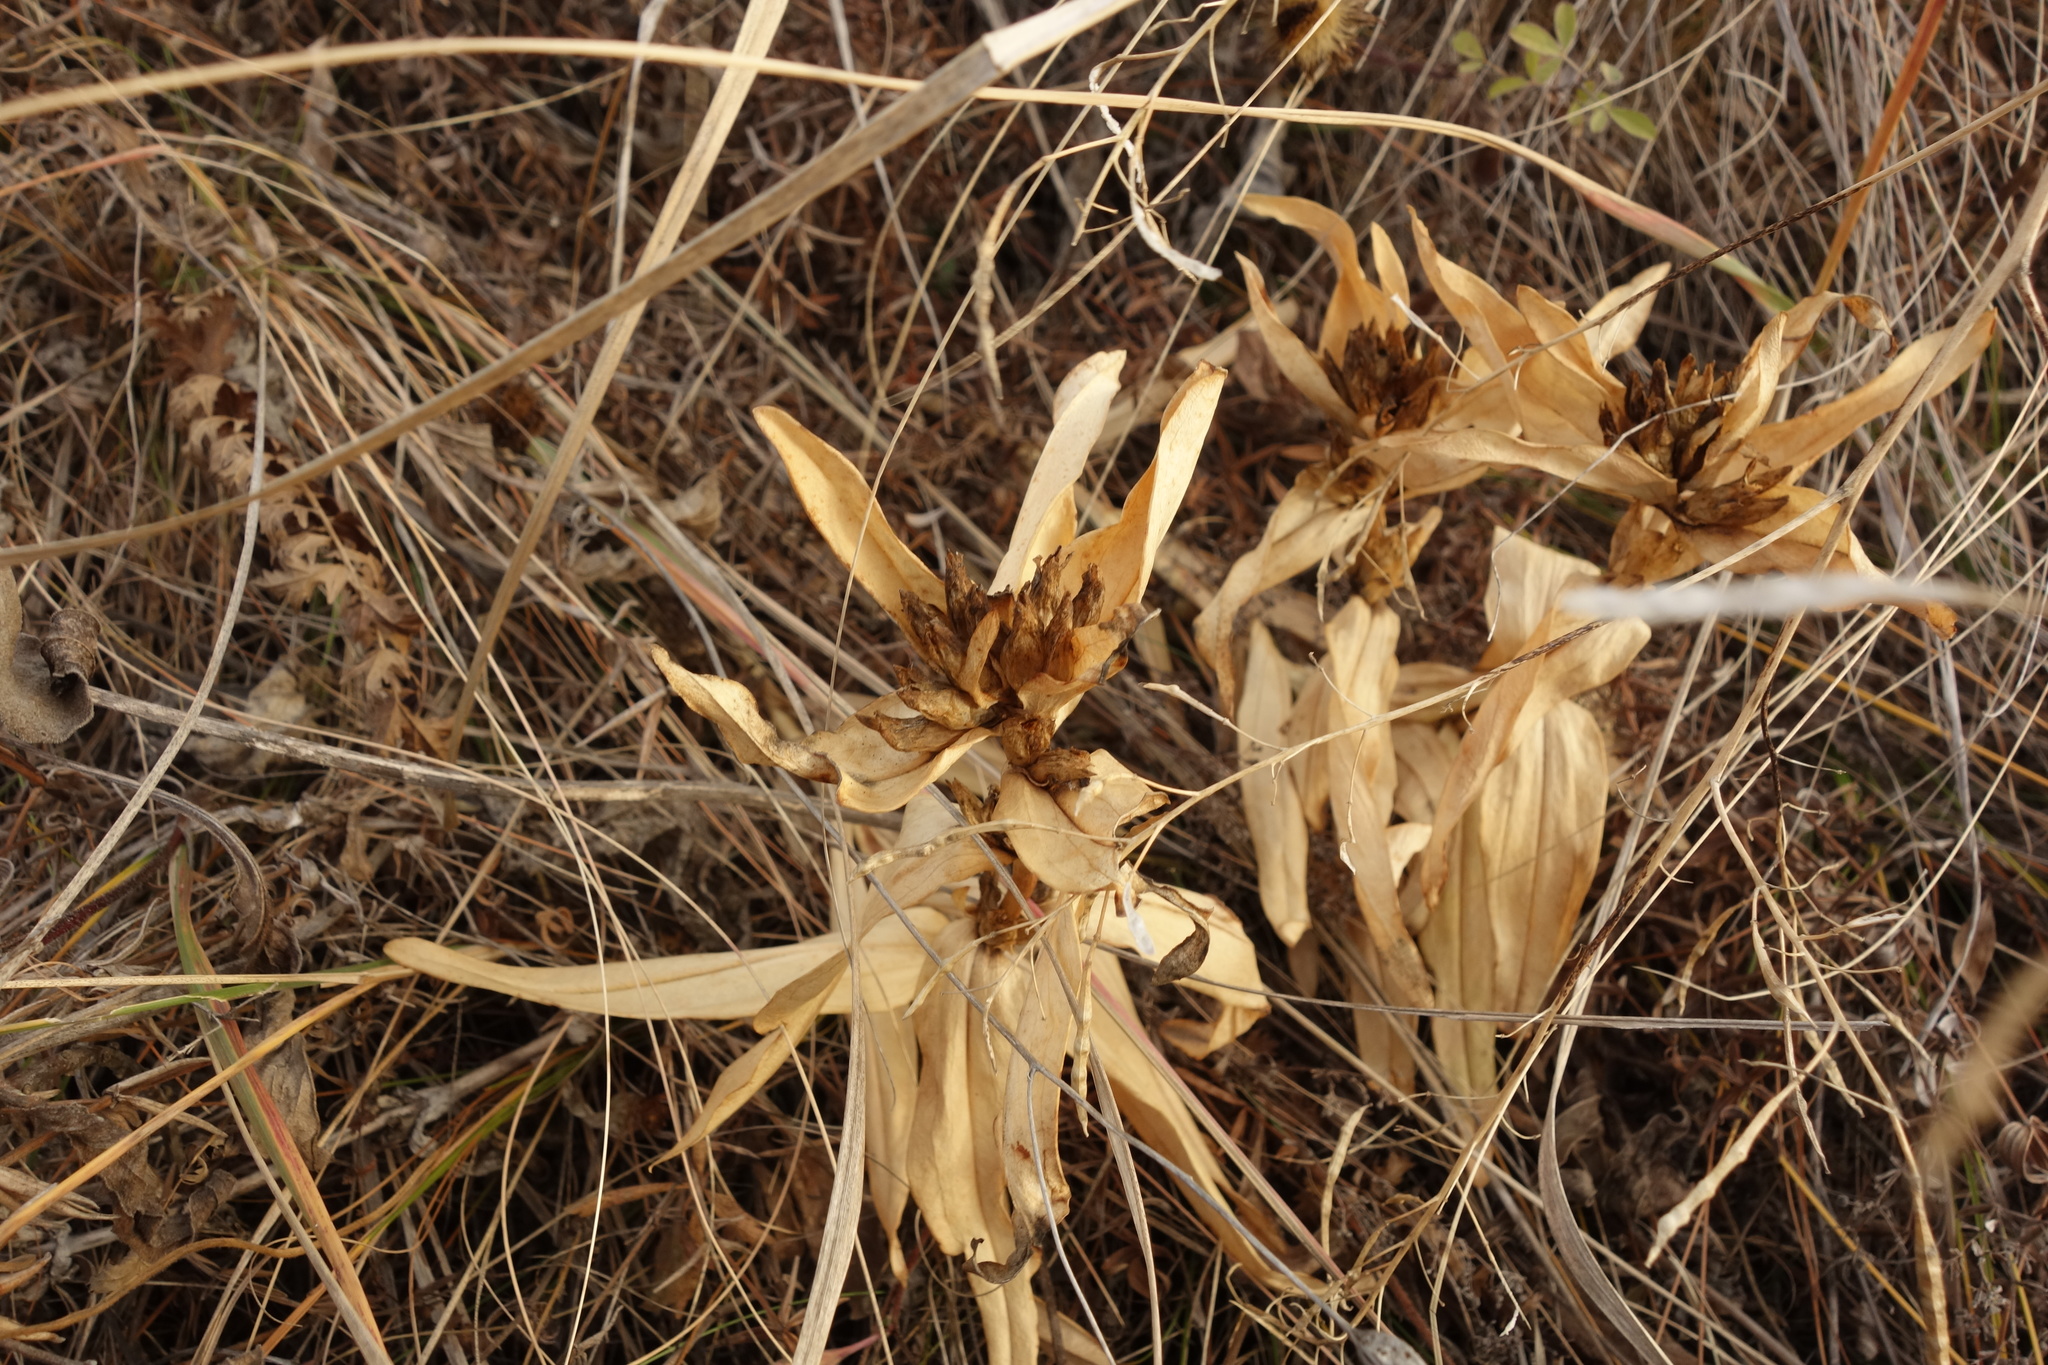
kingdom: Plantae
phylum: Tracheophyta
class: Magnoliopsida
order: Gentianales
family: Gentianaceae
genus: Gentiana
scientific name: Gentiana cruciata
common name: Cross gentian
